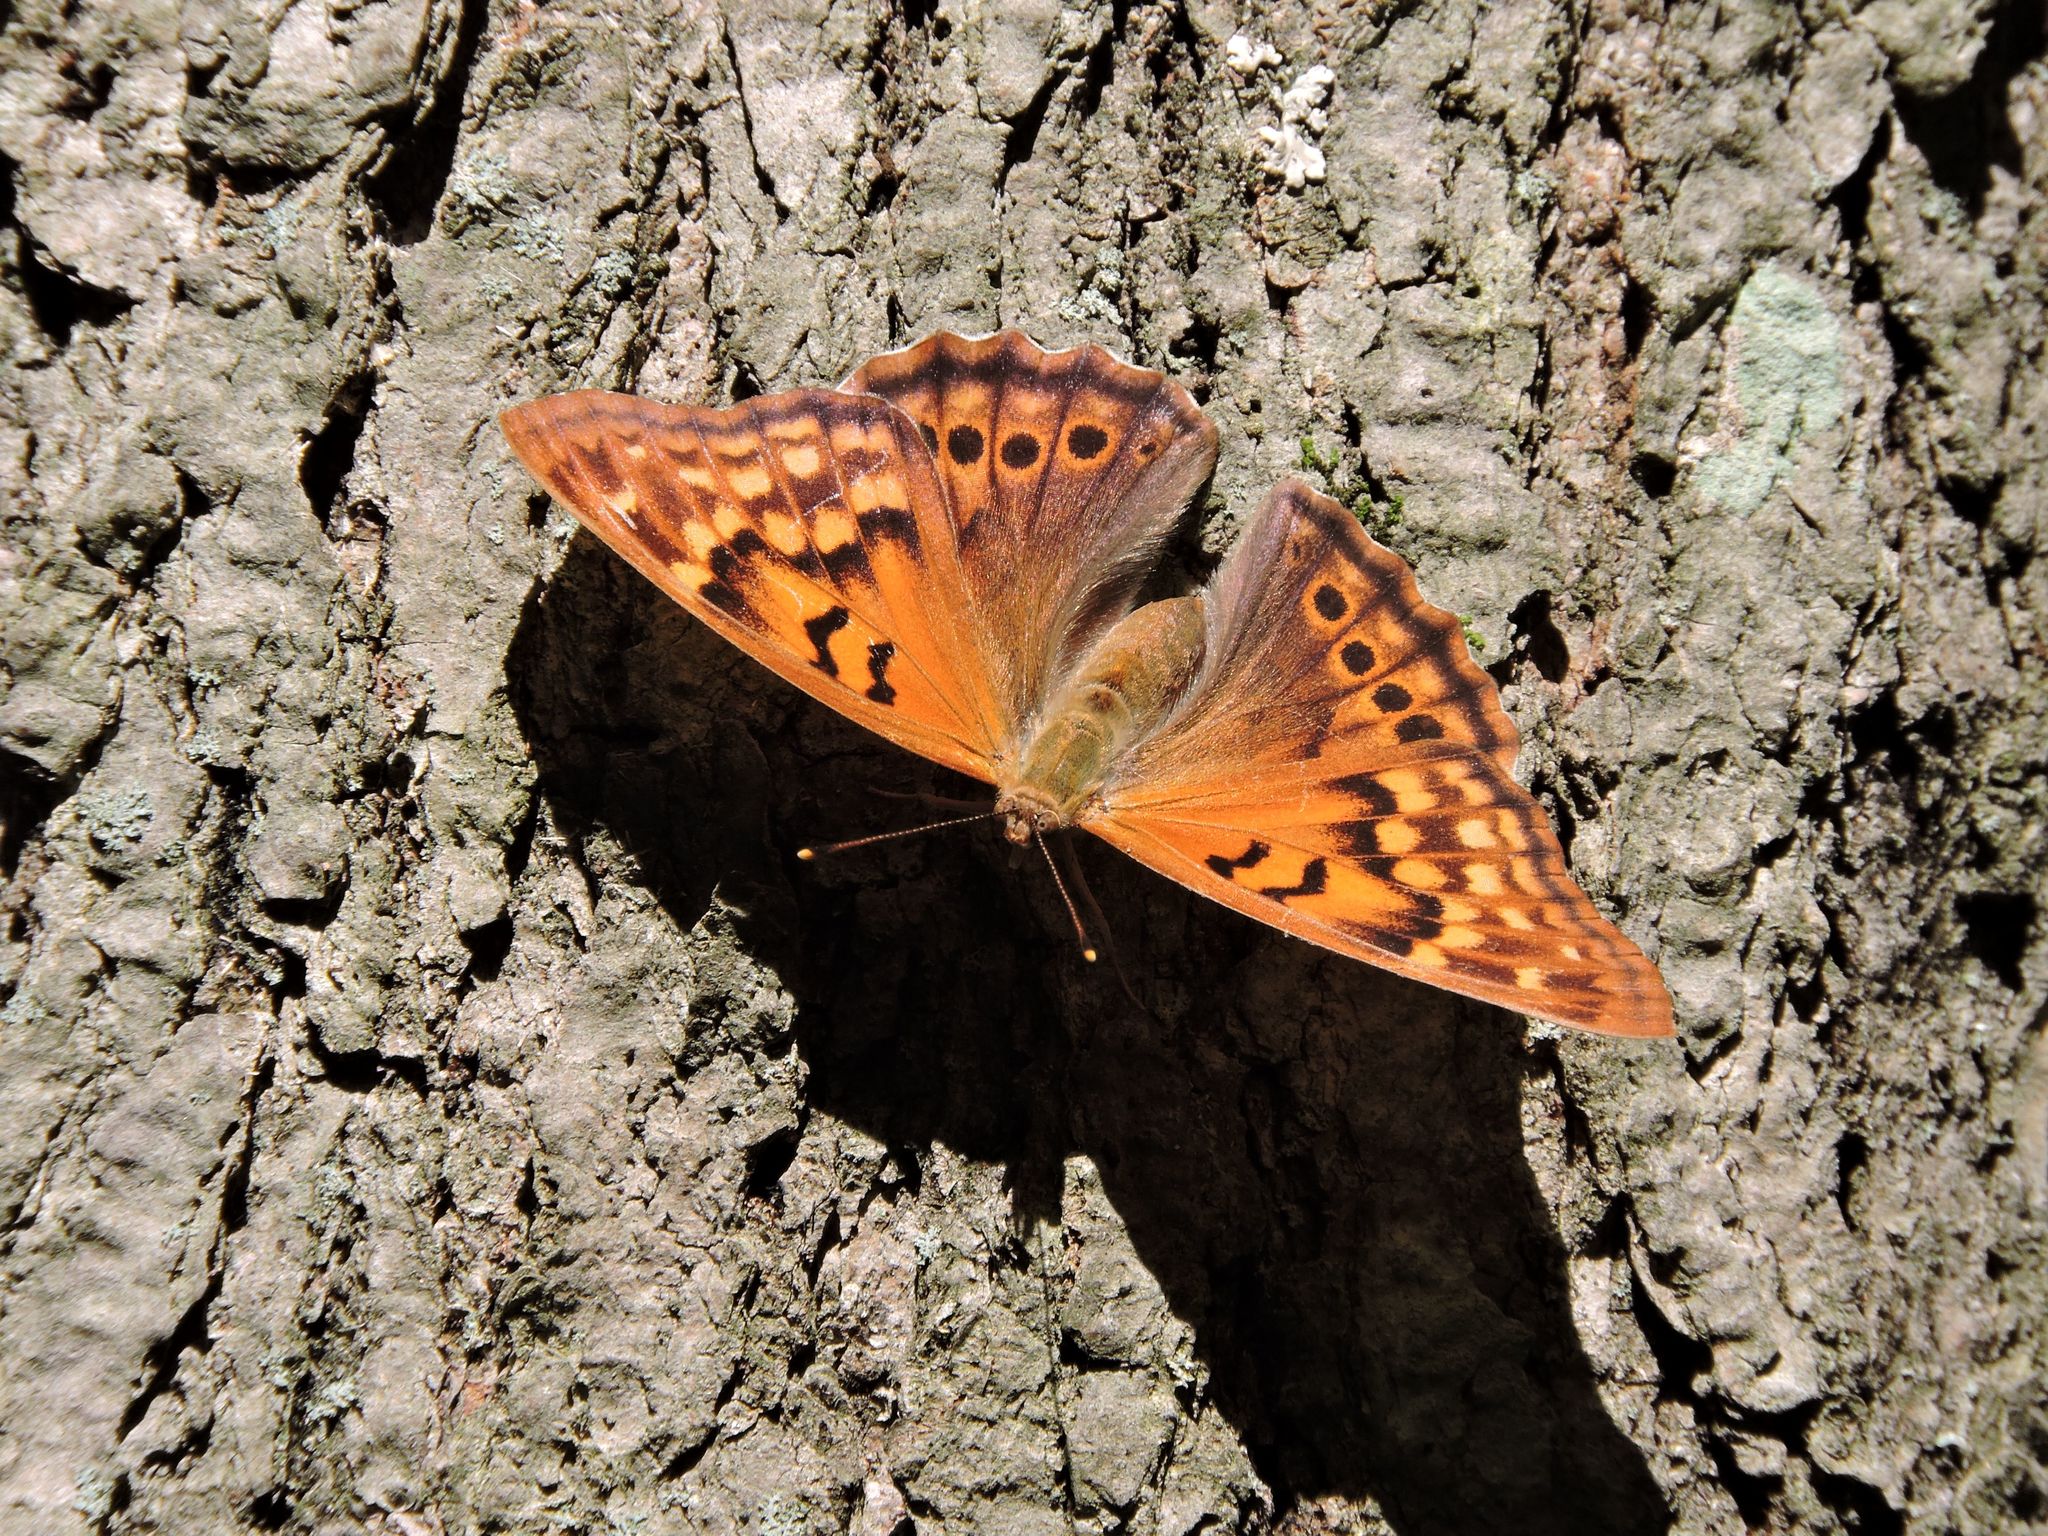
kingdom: Animalia
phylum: Arthropoda
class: Insecta
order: Lepidoptera
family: Nymphalidae
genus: Asterocampa
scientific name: Asterocampa clyton
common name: Tawny emperor
